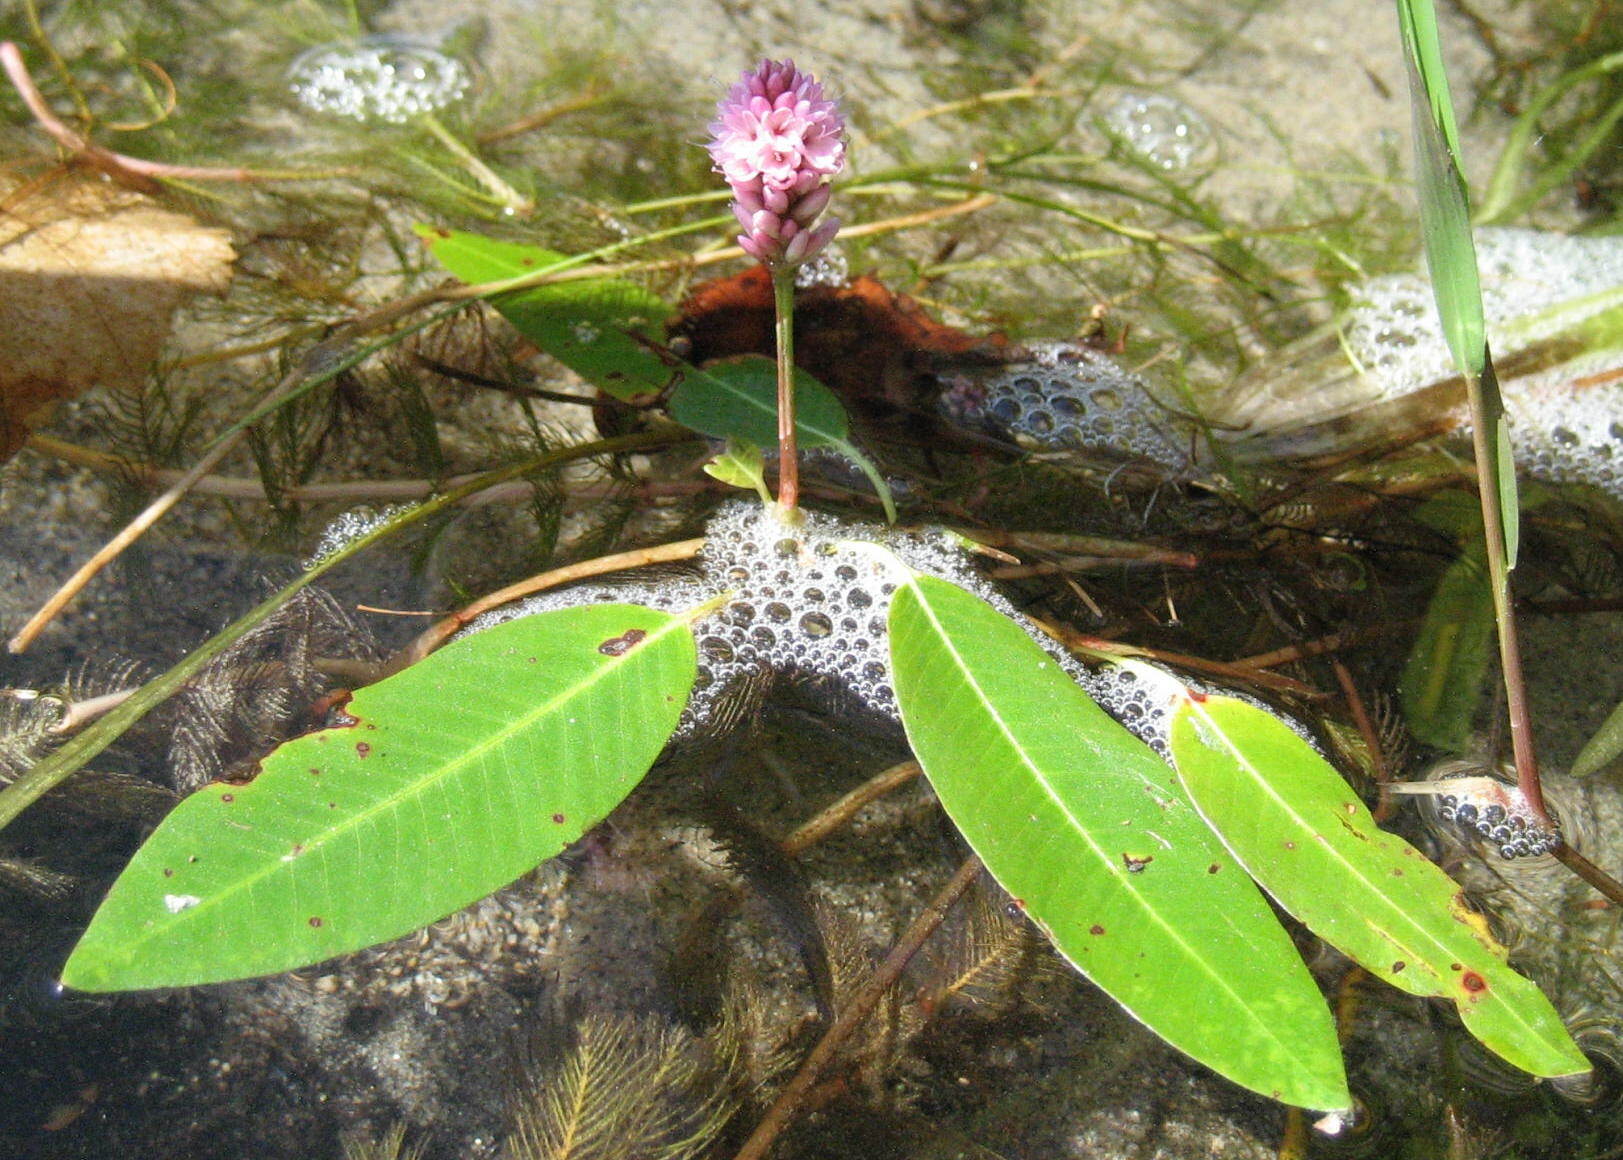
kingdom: Plantae
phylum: Tracheophyta
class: Magnoliopsida
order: Caryophyllales
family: Polygonaceae
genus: Persicaria
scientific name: Persicaria amphibia
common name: Amphibious bistort
